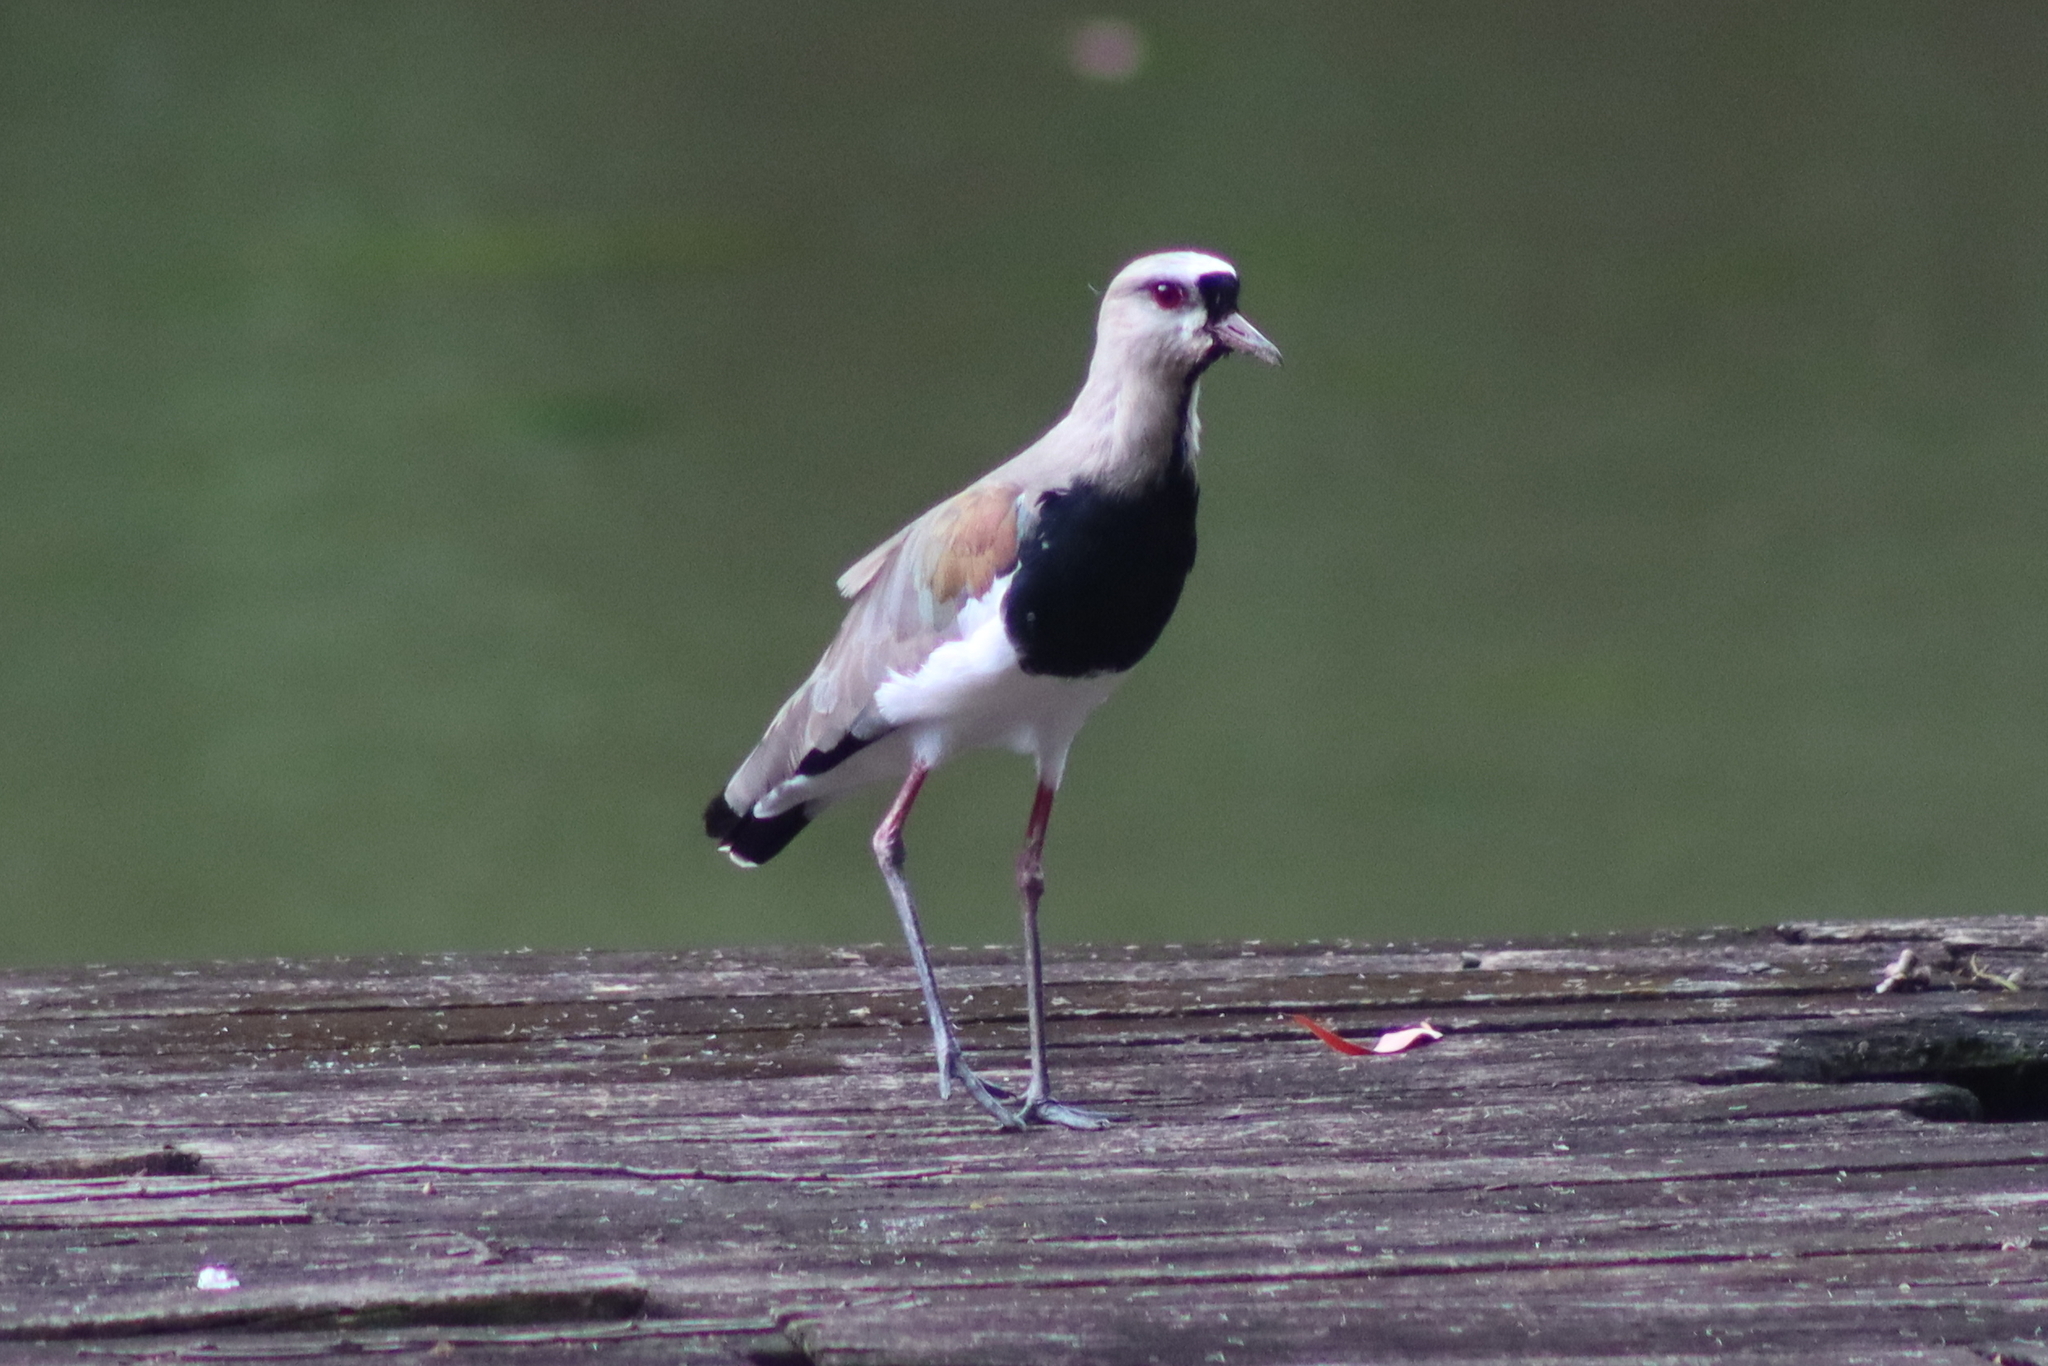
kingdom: Animalia
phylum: Chordata
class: Aves
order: Charadriiformes
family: Charadriidae
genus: Vanellus
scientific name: Vanellus chilensis
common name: Southern lapwing
